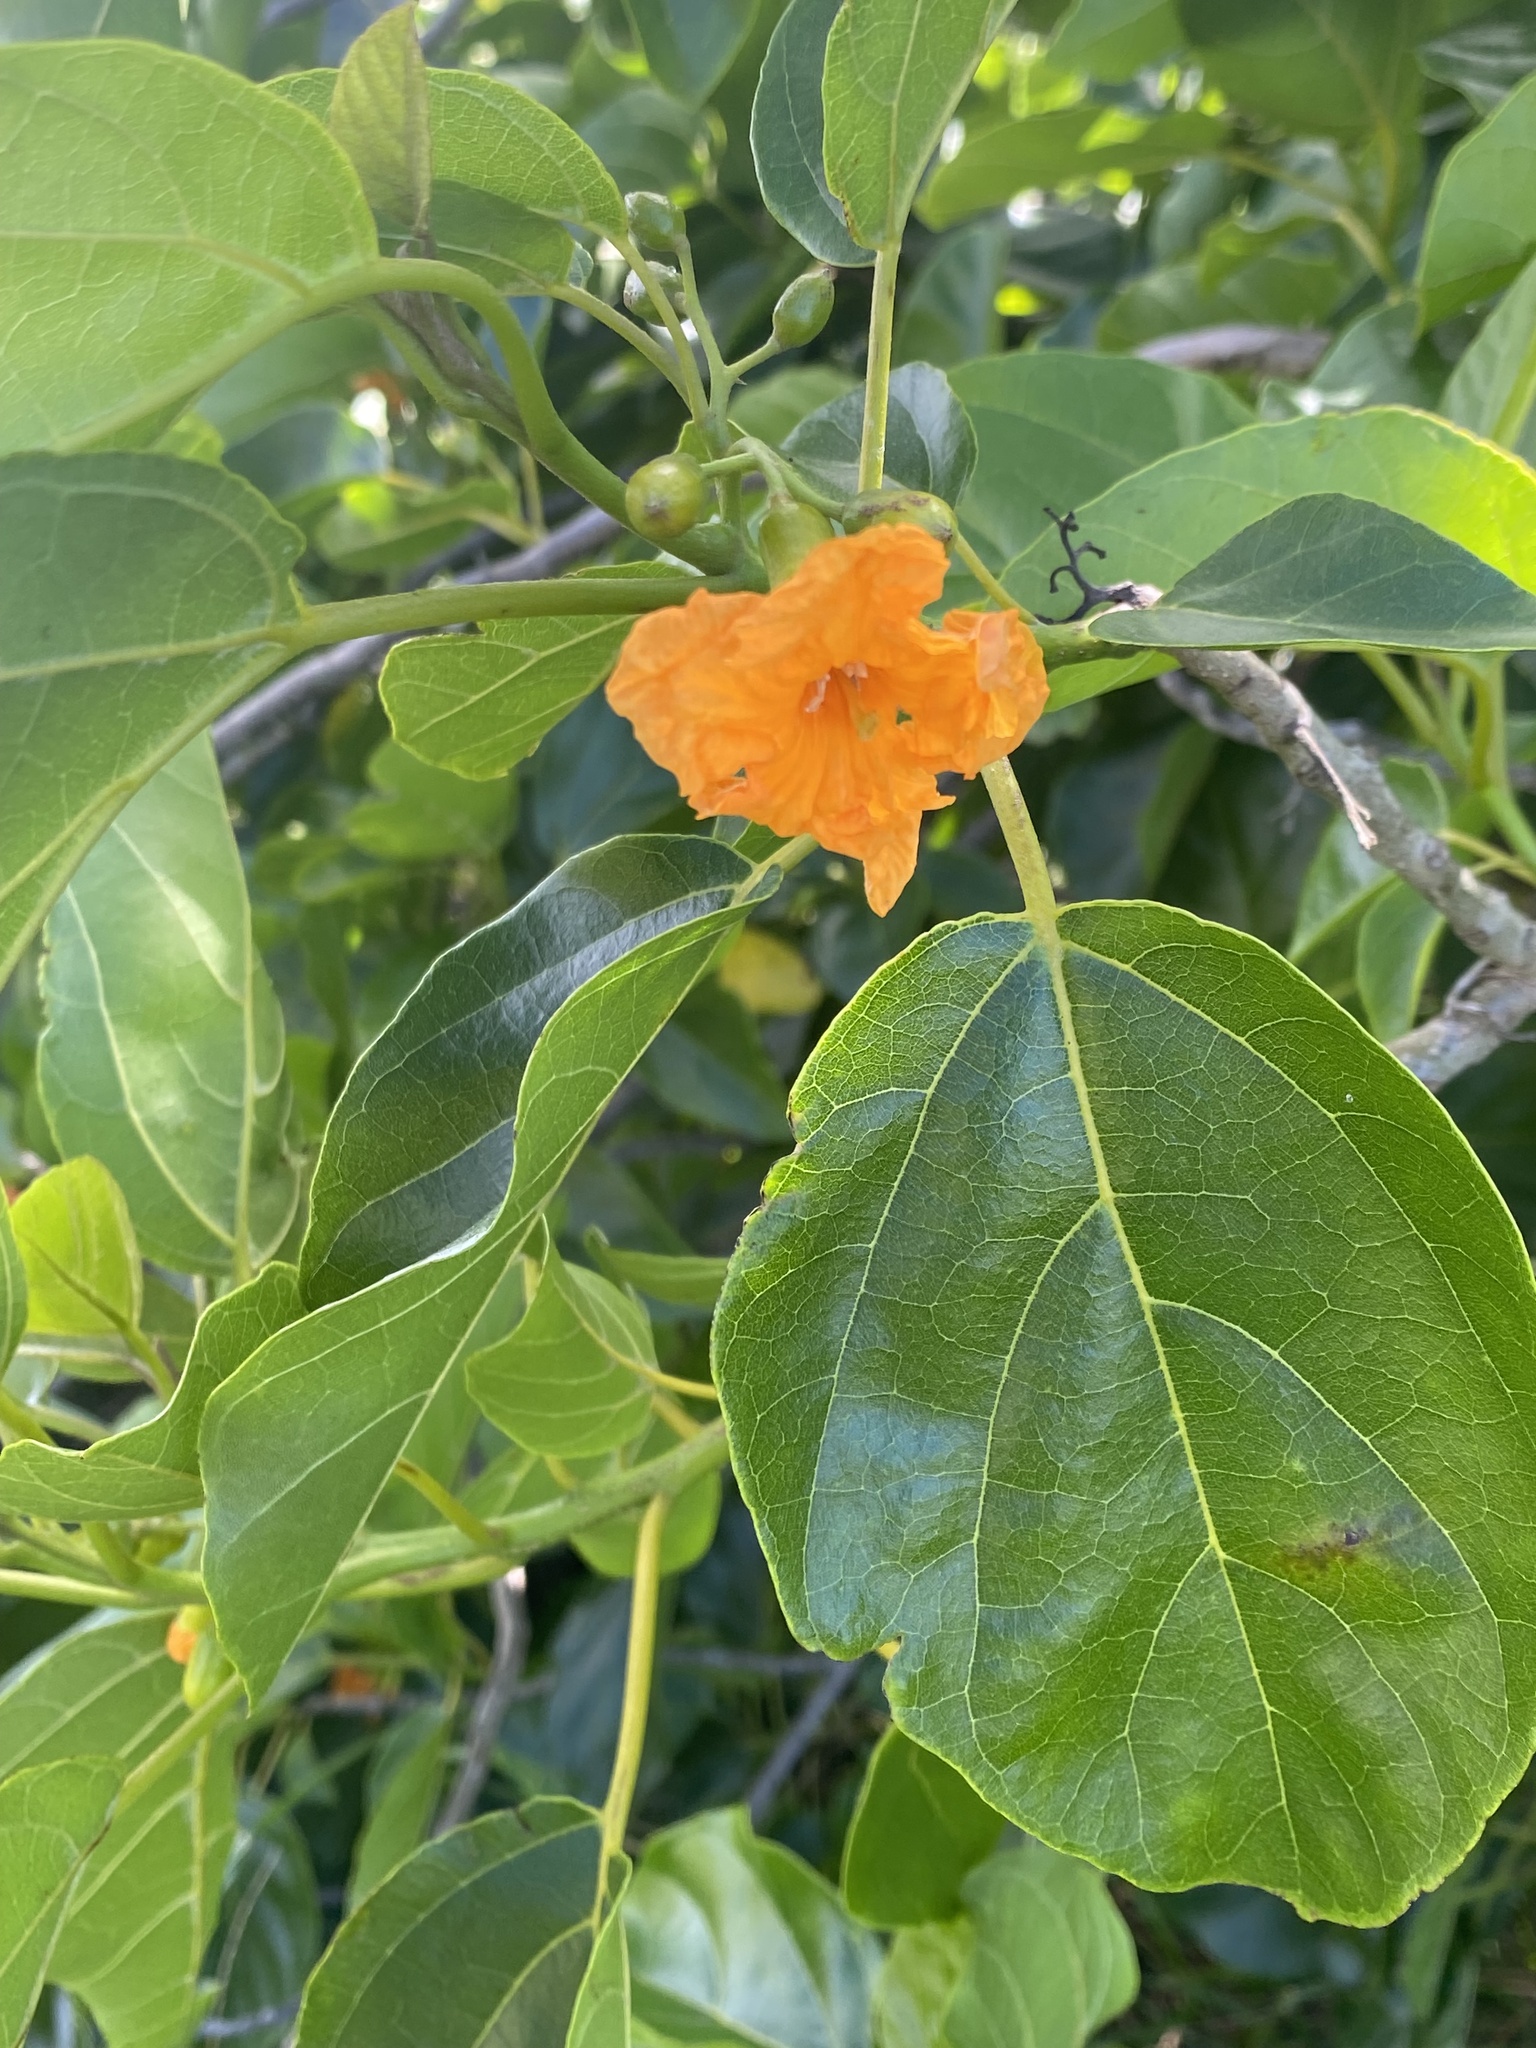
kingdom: Plantae
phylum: Tracheophyta
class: Magnoliopsida
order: Boraginales
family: Cordiaceae
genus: Cordia
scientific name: Cordia subcordata
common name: Mareer
